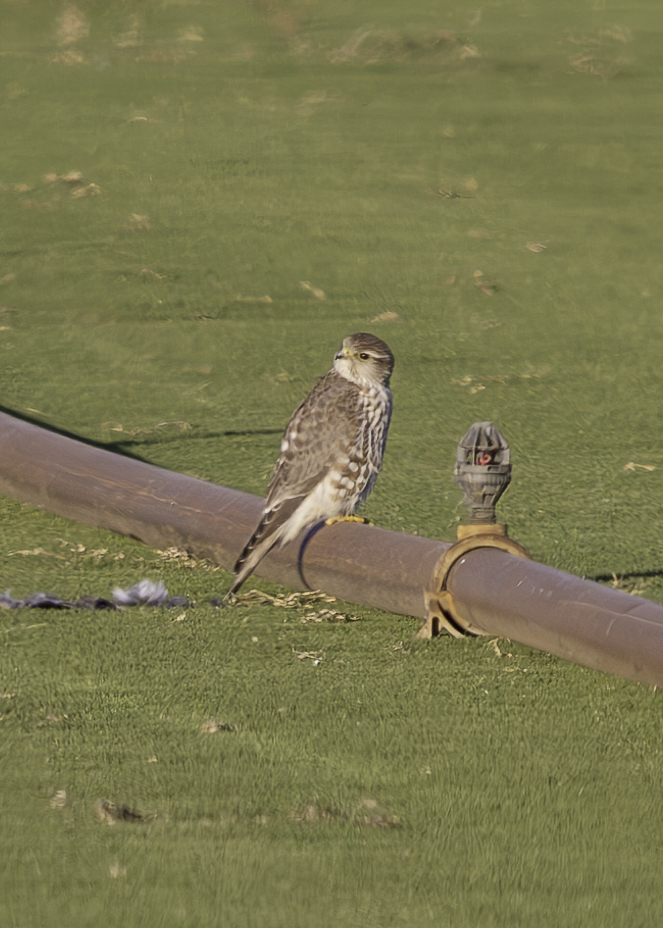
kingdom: Animalia
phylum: Chordata
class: Aves
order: Falconiformes
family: Falconidae
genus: Falco
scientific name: Falco columbarius
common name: Merlin
